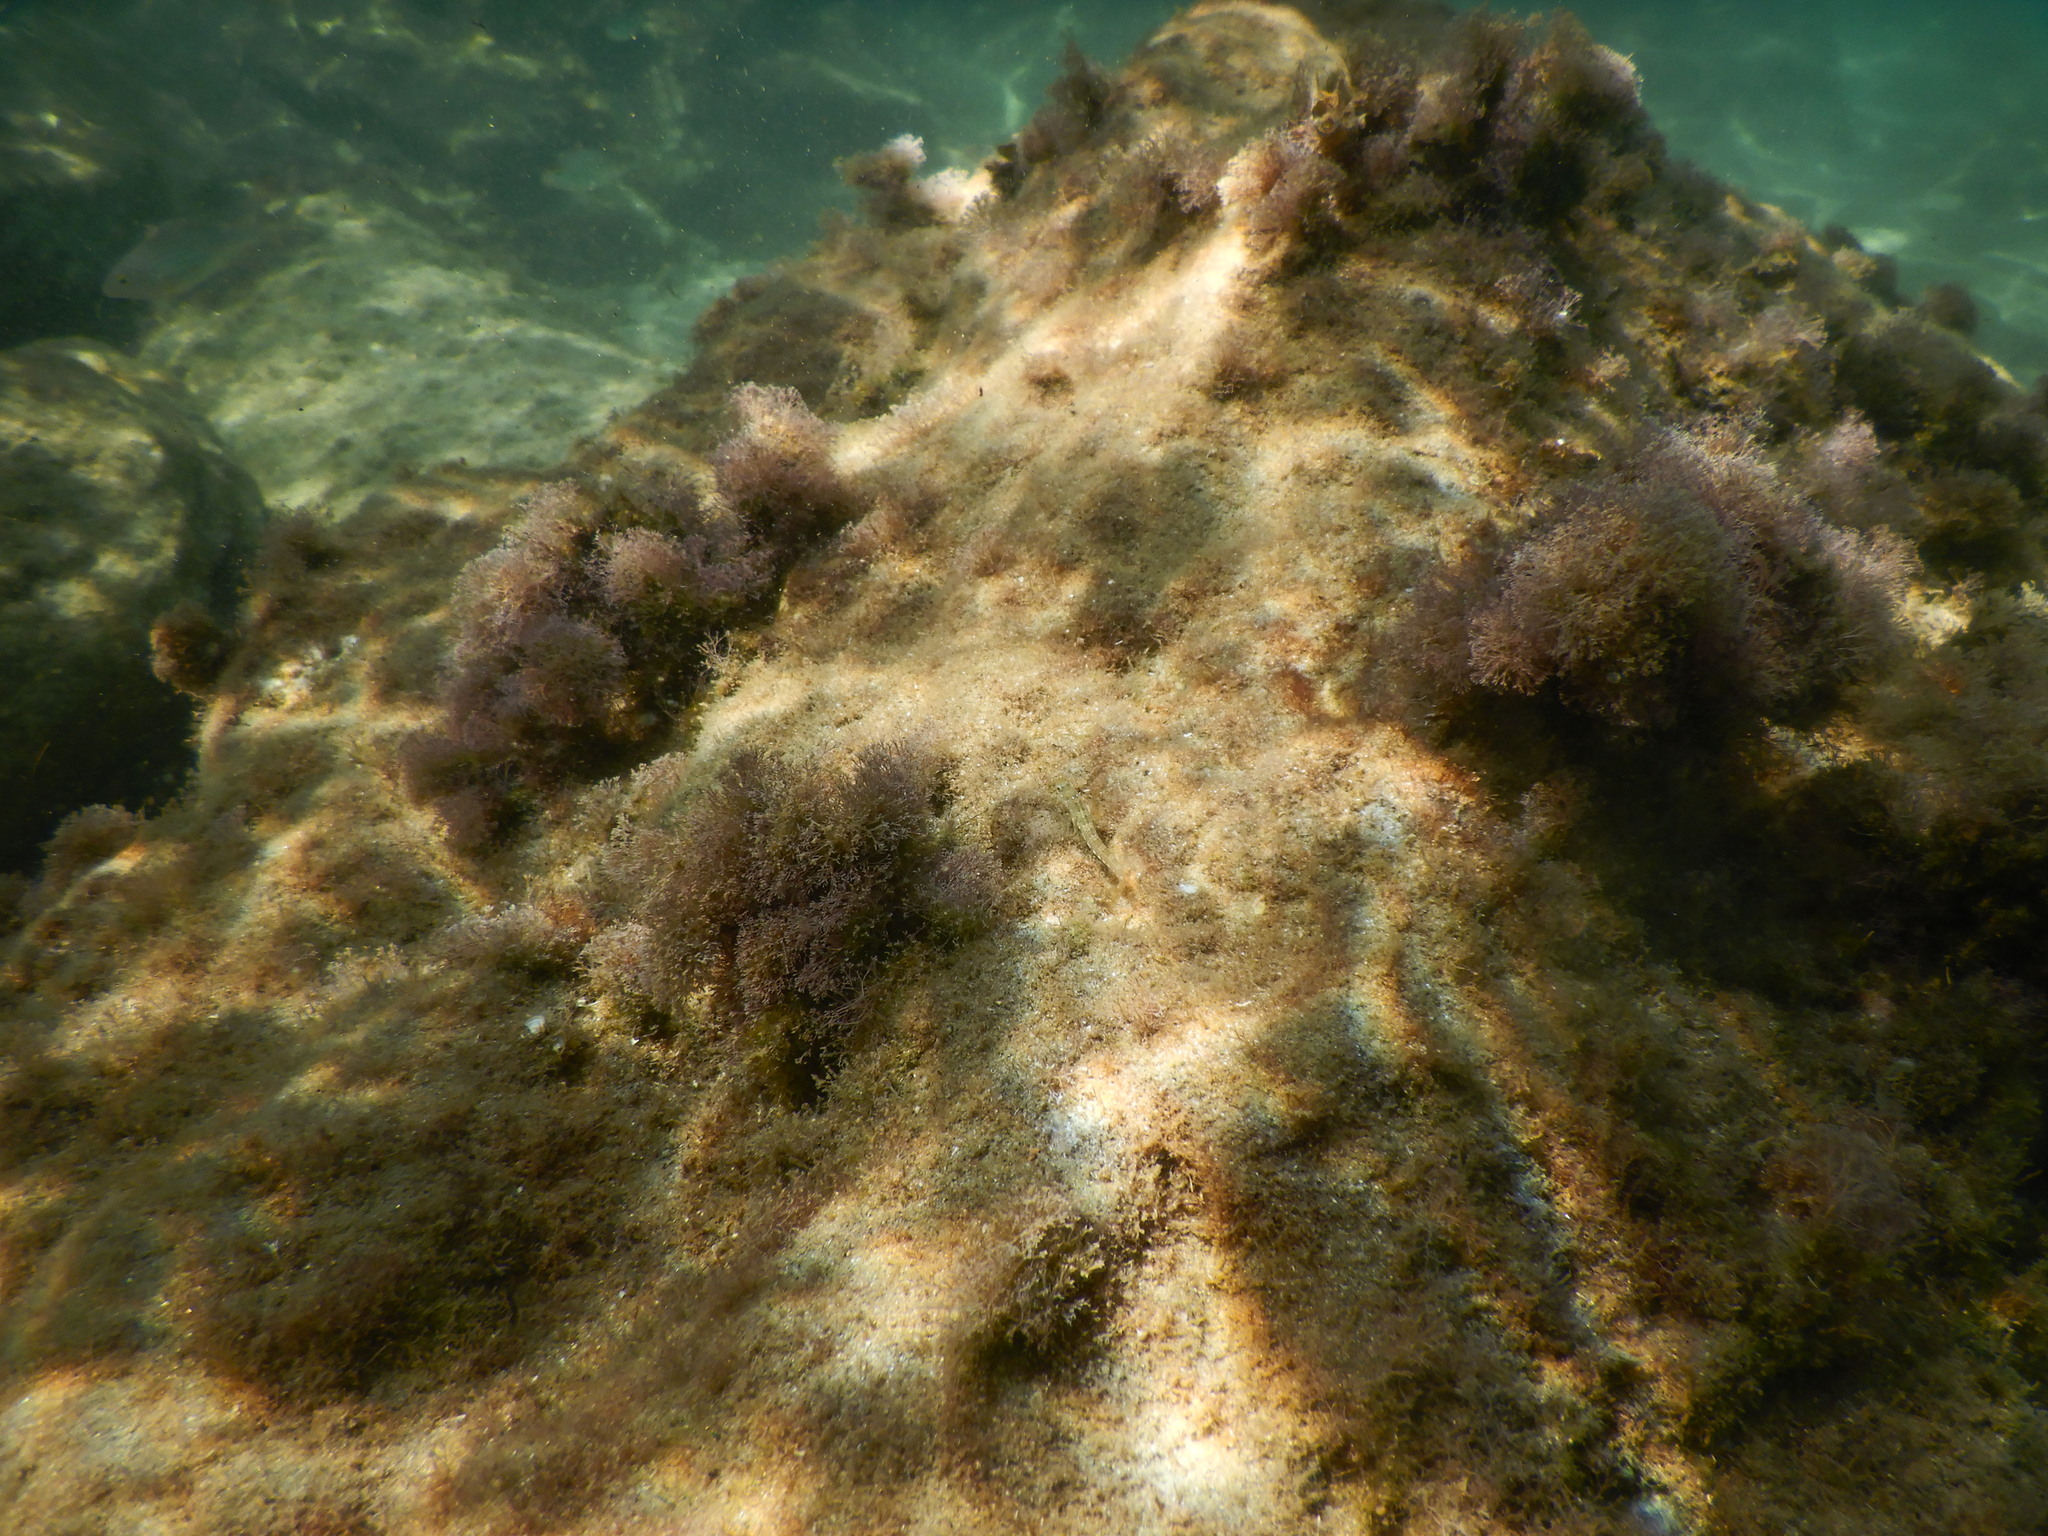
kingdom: Animalia
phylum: Chordata
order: Perciformes
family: Blenniidae
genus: Microlipophrys
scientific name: Microlipophrys dalmatinus
